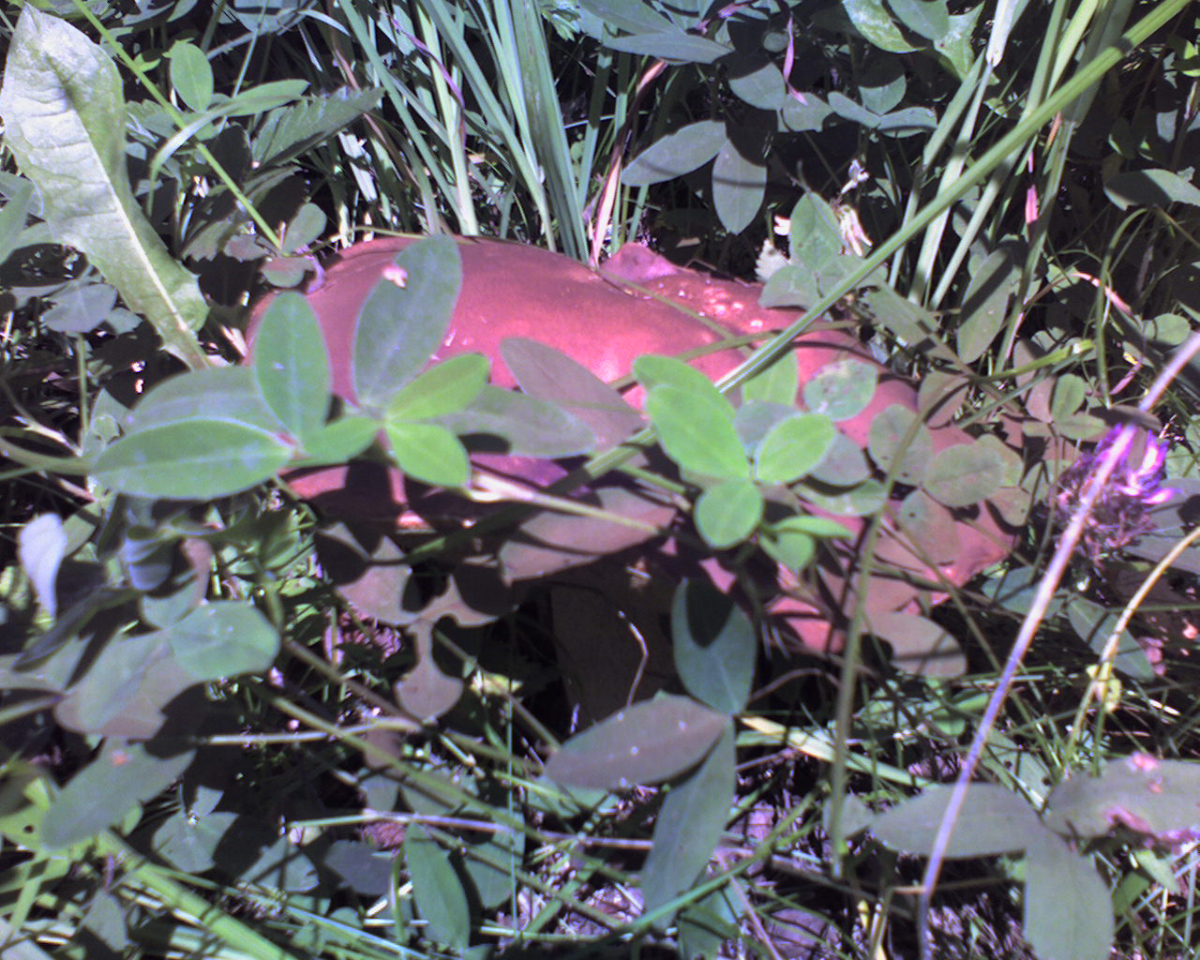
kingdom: Fungi
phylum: Basidiomycota
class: Agaricomycetes
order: Boletales
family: Boletaceae
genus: Boletus
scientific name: Boletus edulis
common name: Cep
